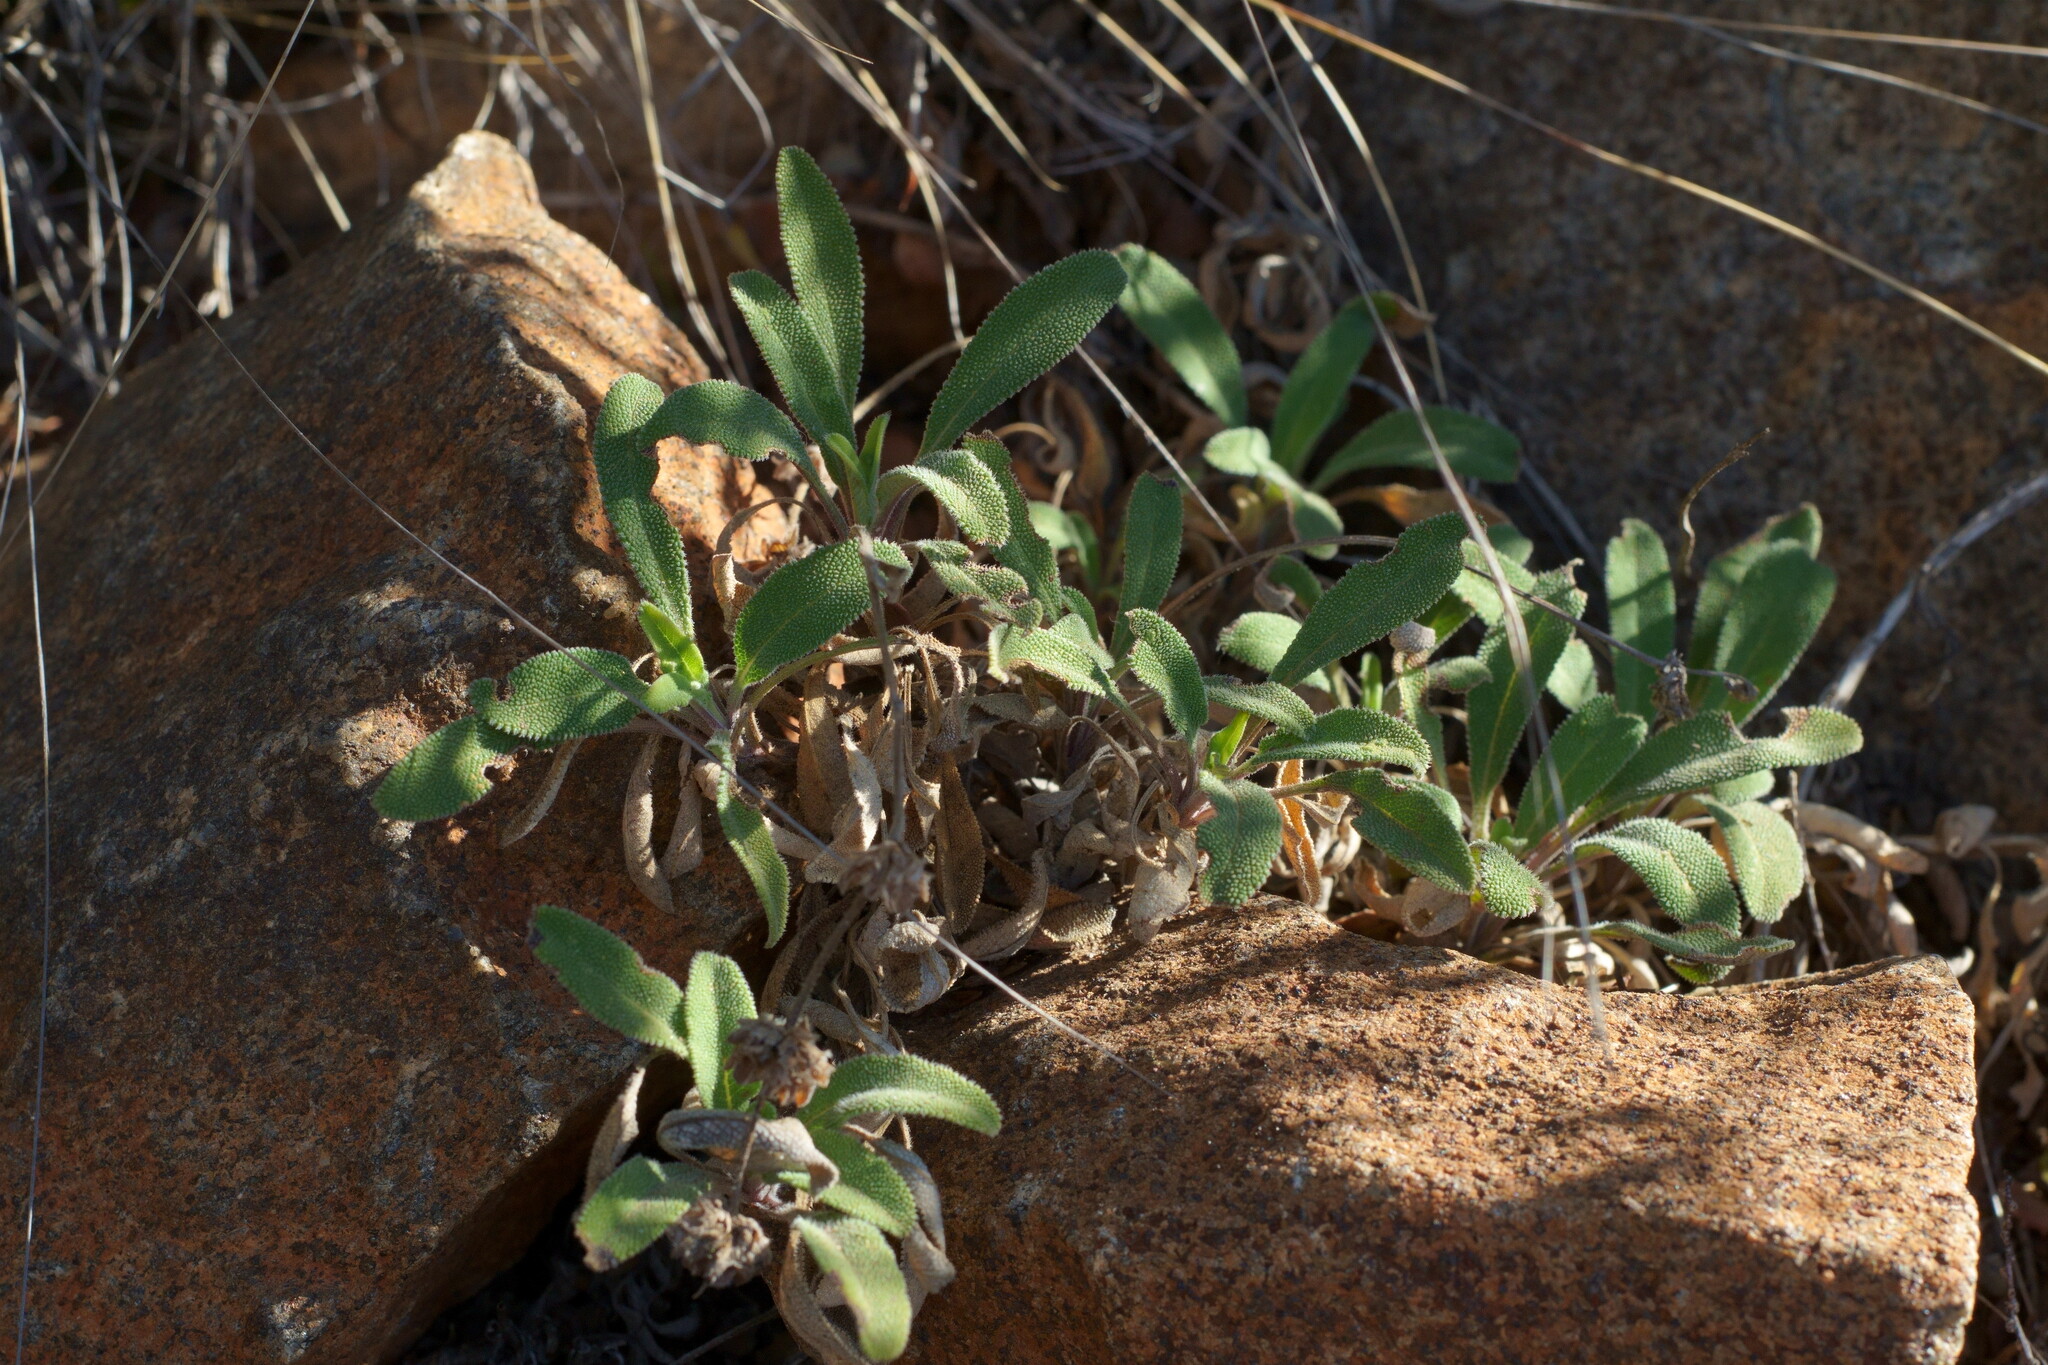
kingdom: Plantae
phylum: Tracheophyta
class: Magnoliopsida
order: Lamiales
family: Lamiaceae
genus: Salvia
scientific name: Salvia sonomensis
